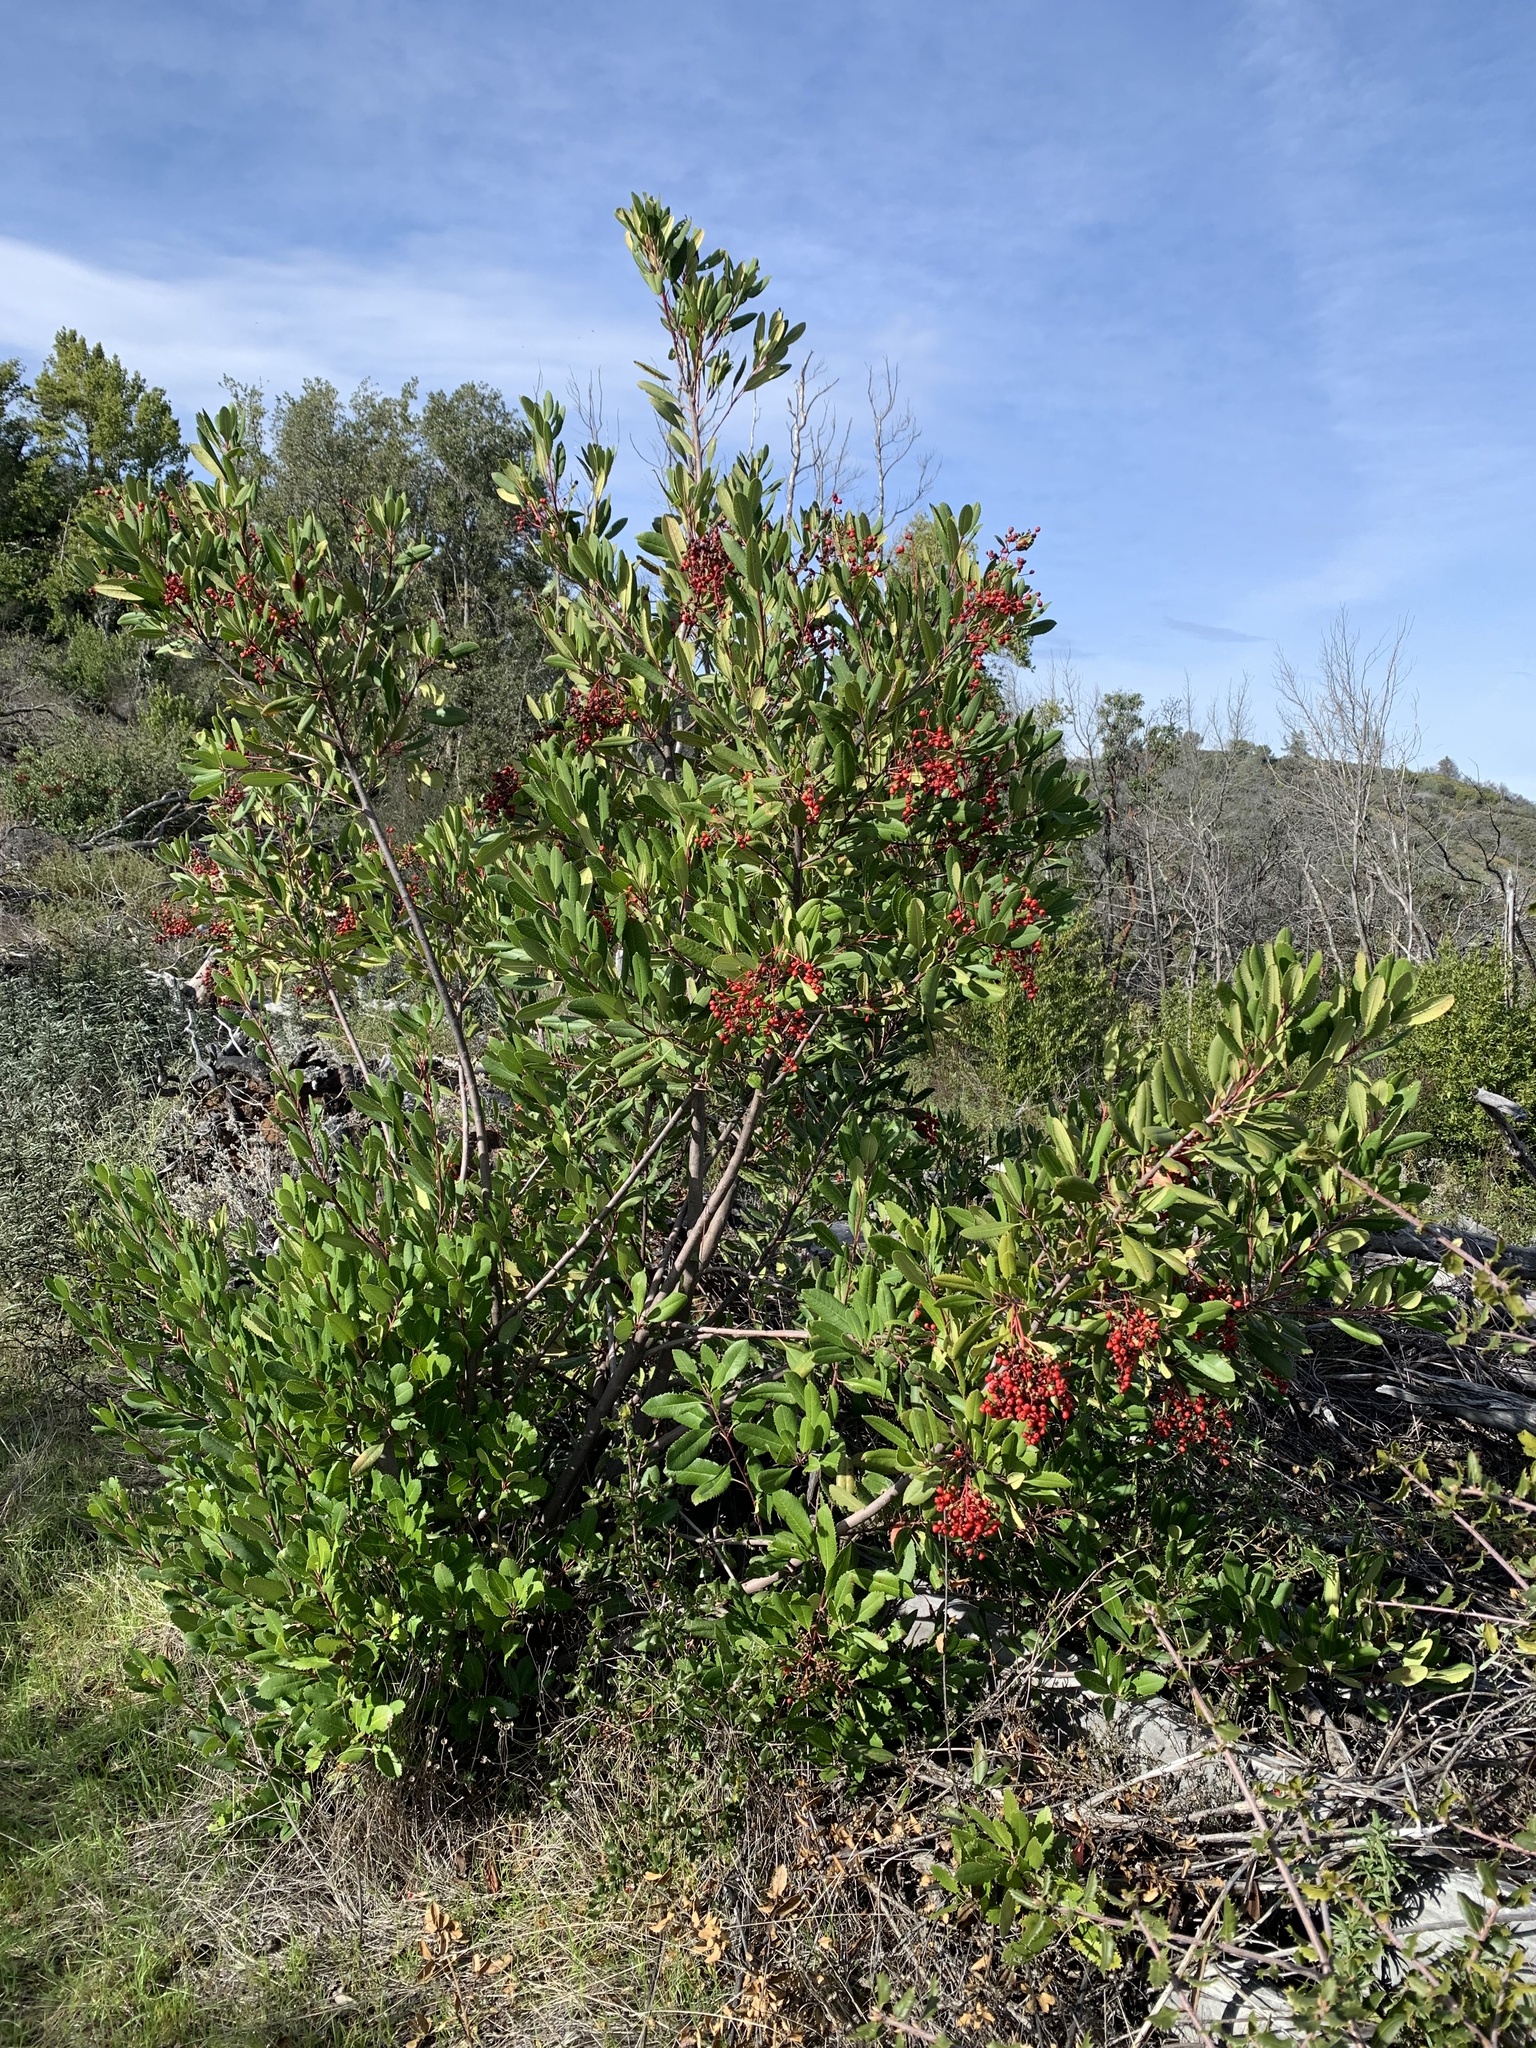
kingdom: Plantae
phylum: Tracheophyta
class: Magnoliopsida
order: Rosales
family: Rosaceae
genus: Heteromeles
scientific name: Heteromeles arbutifolia
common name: California-holly
